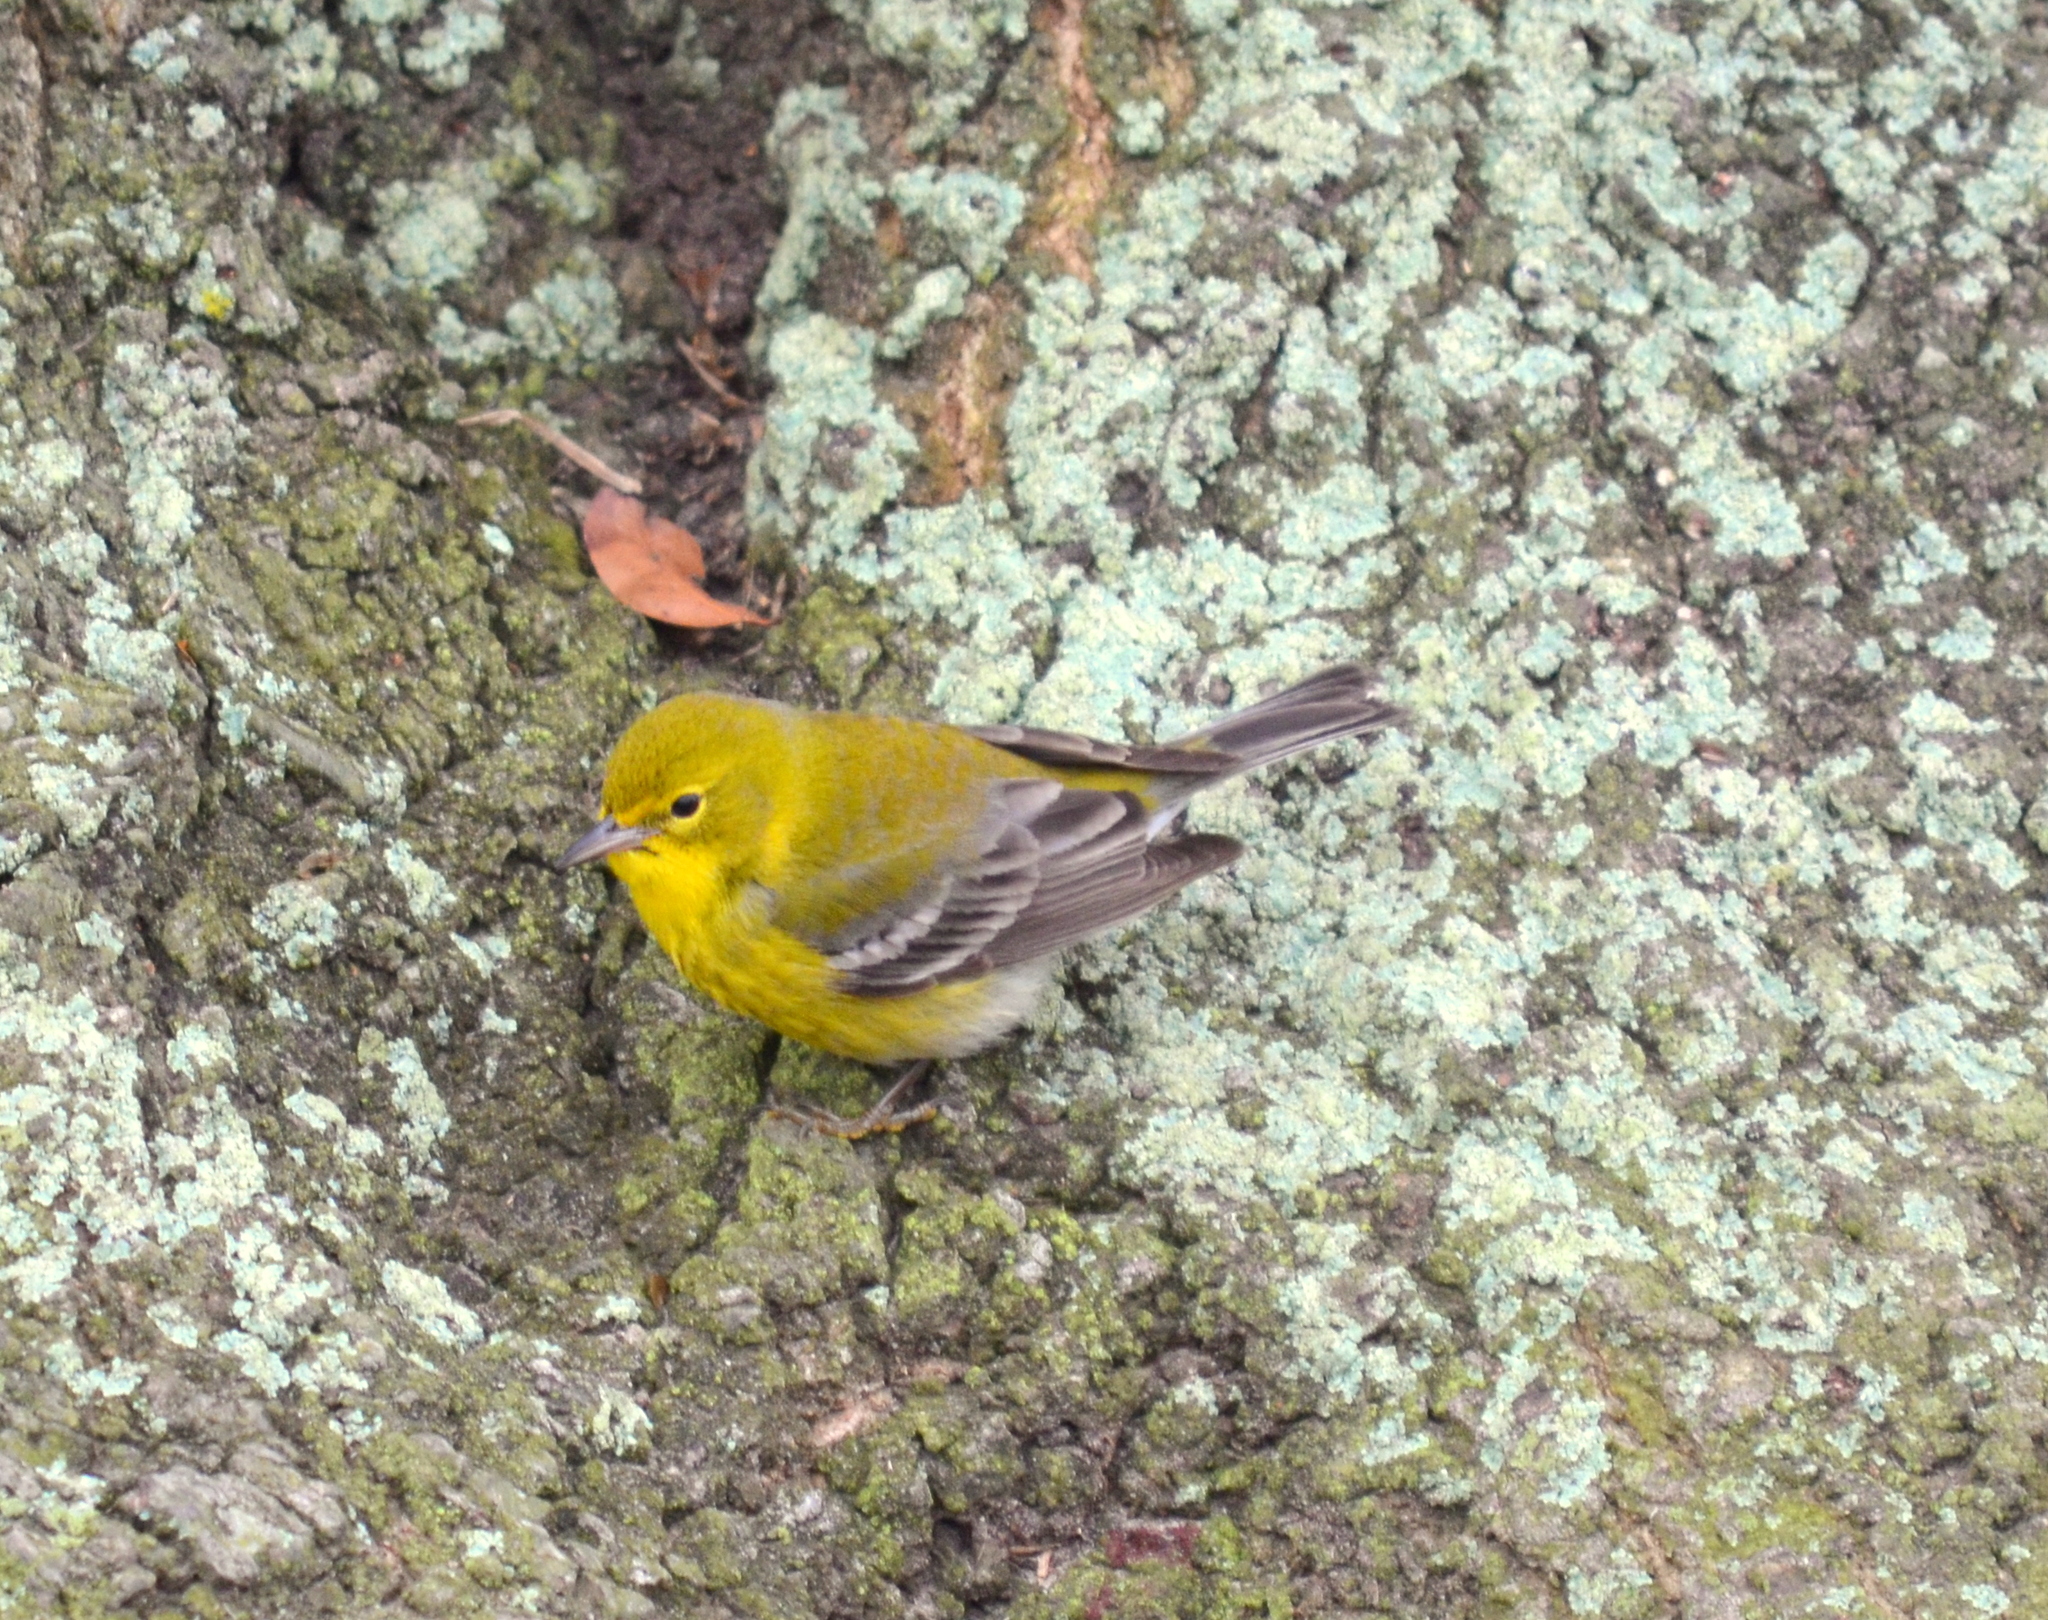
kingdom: Animalia
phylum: Chordata
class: Aves
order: Passeriformes
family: Parulidae
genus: Setophaga
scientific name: Setophaga pinus
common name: Pine warbler
